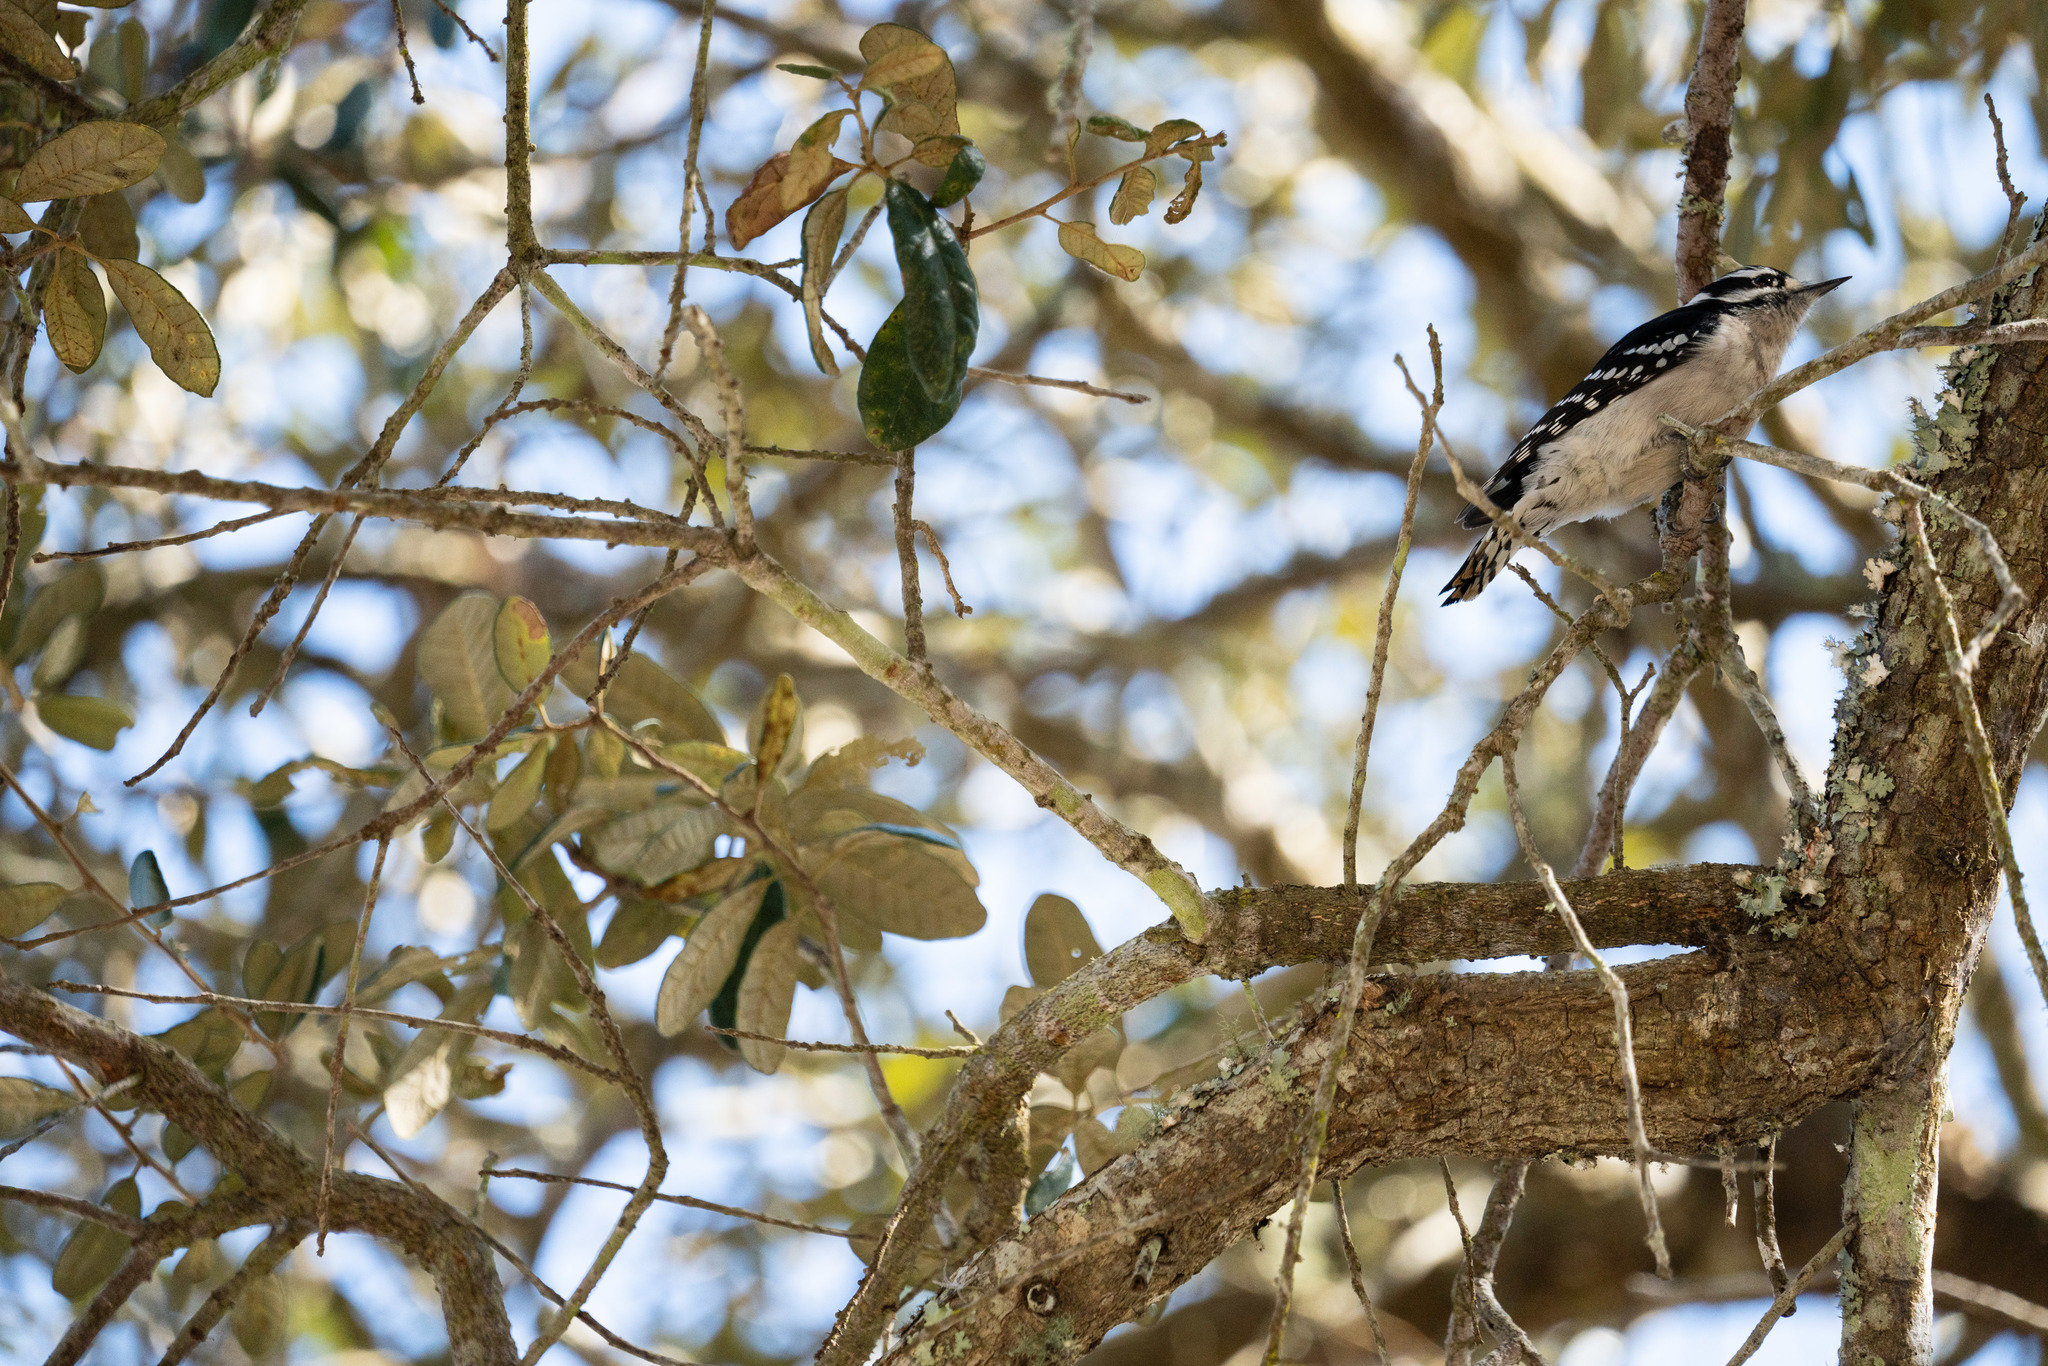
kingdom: Animalia
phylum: Chordata
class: Aves
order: Piciformes
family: Picidae
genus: Dryobates
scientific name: Dryobates pubescens
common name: Downy woodpecker
